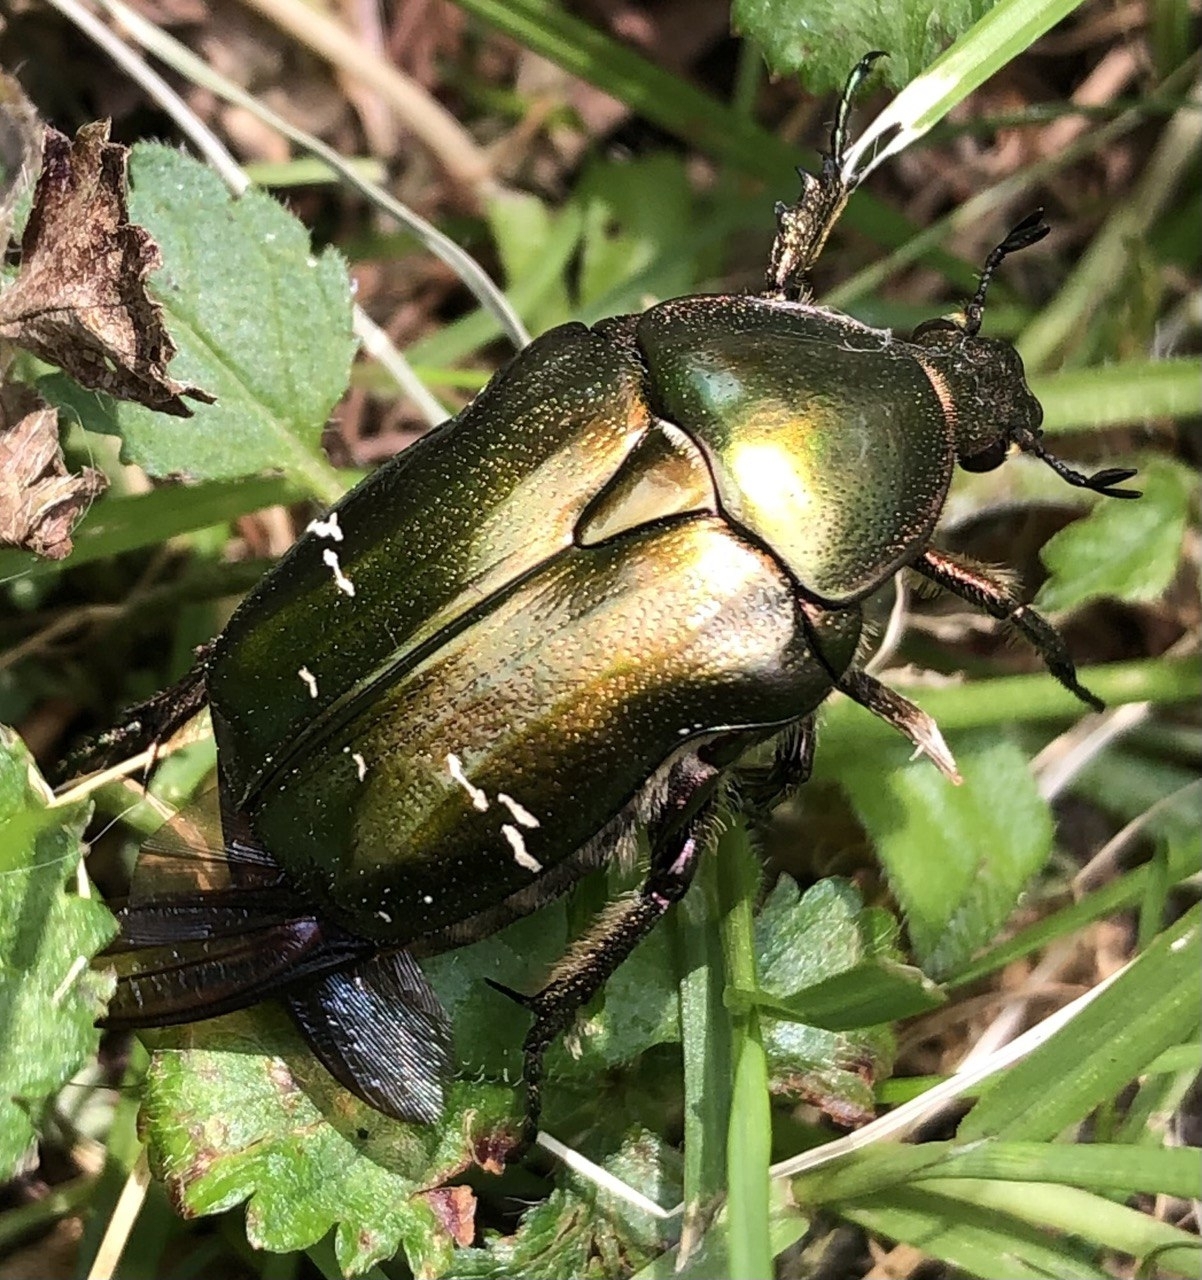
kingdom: Animalia
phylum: Arthropoda
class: Insecta
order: Coleoptera
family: Scarabaeidae
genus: Cetonia
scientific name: Cetonia aurata
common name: Rose chafer
